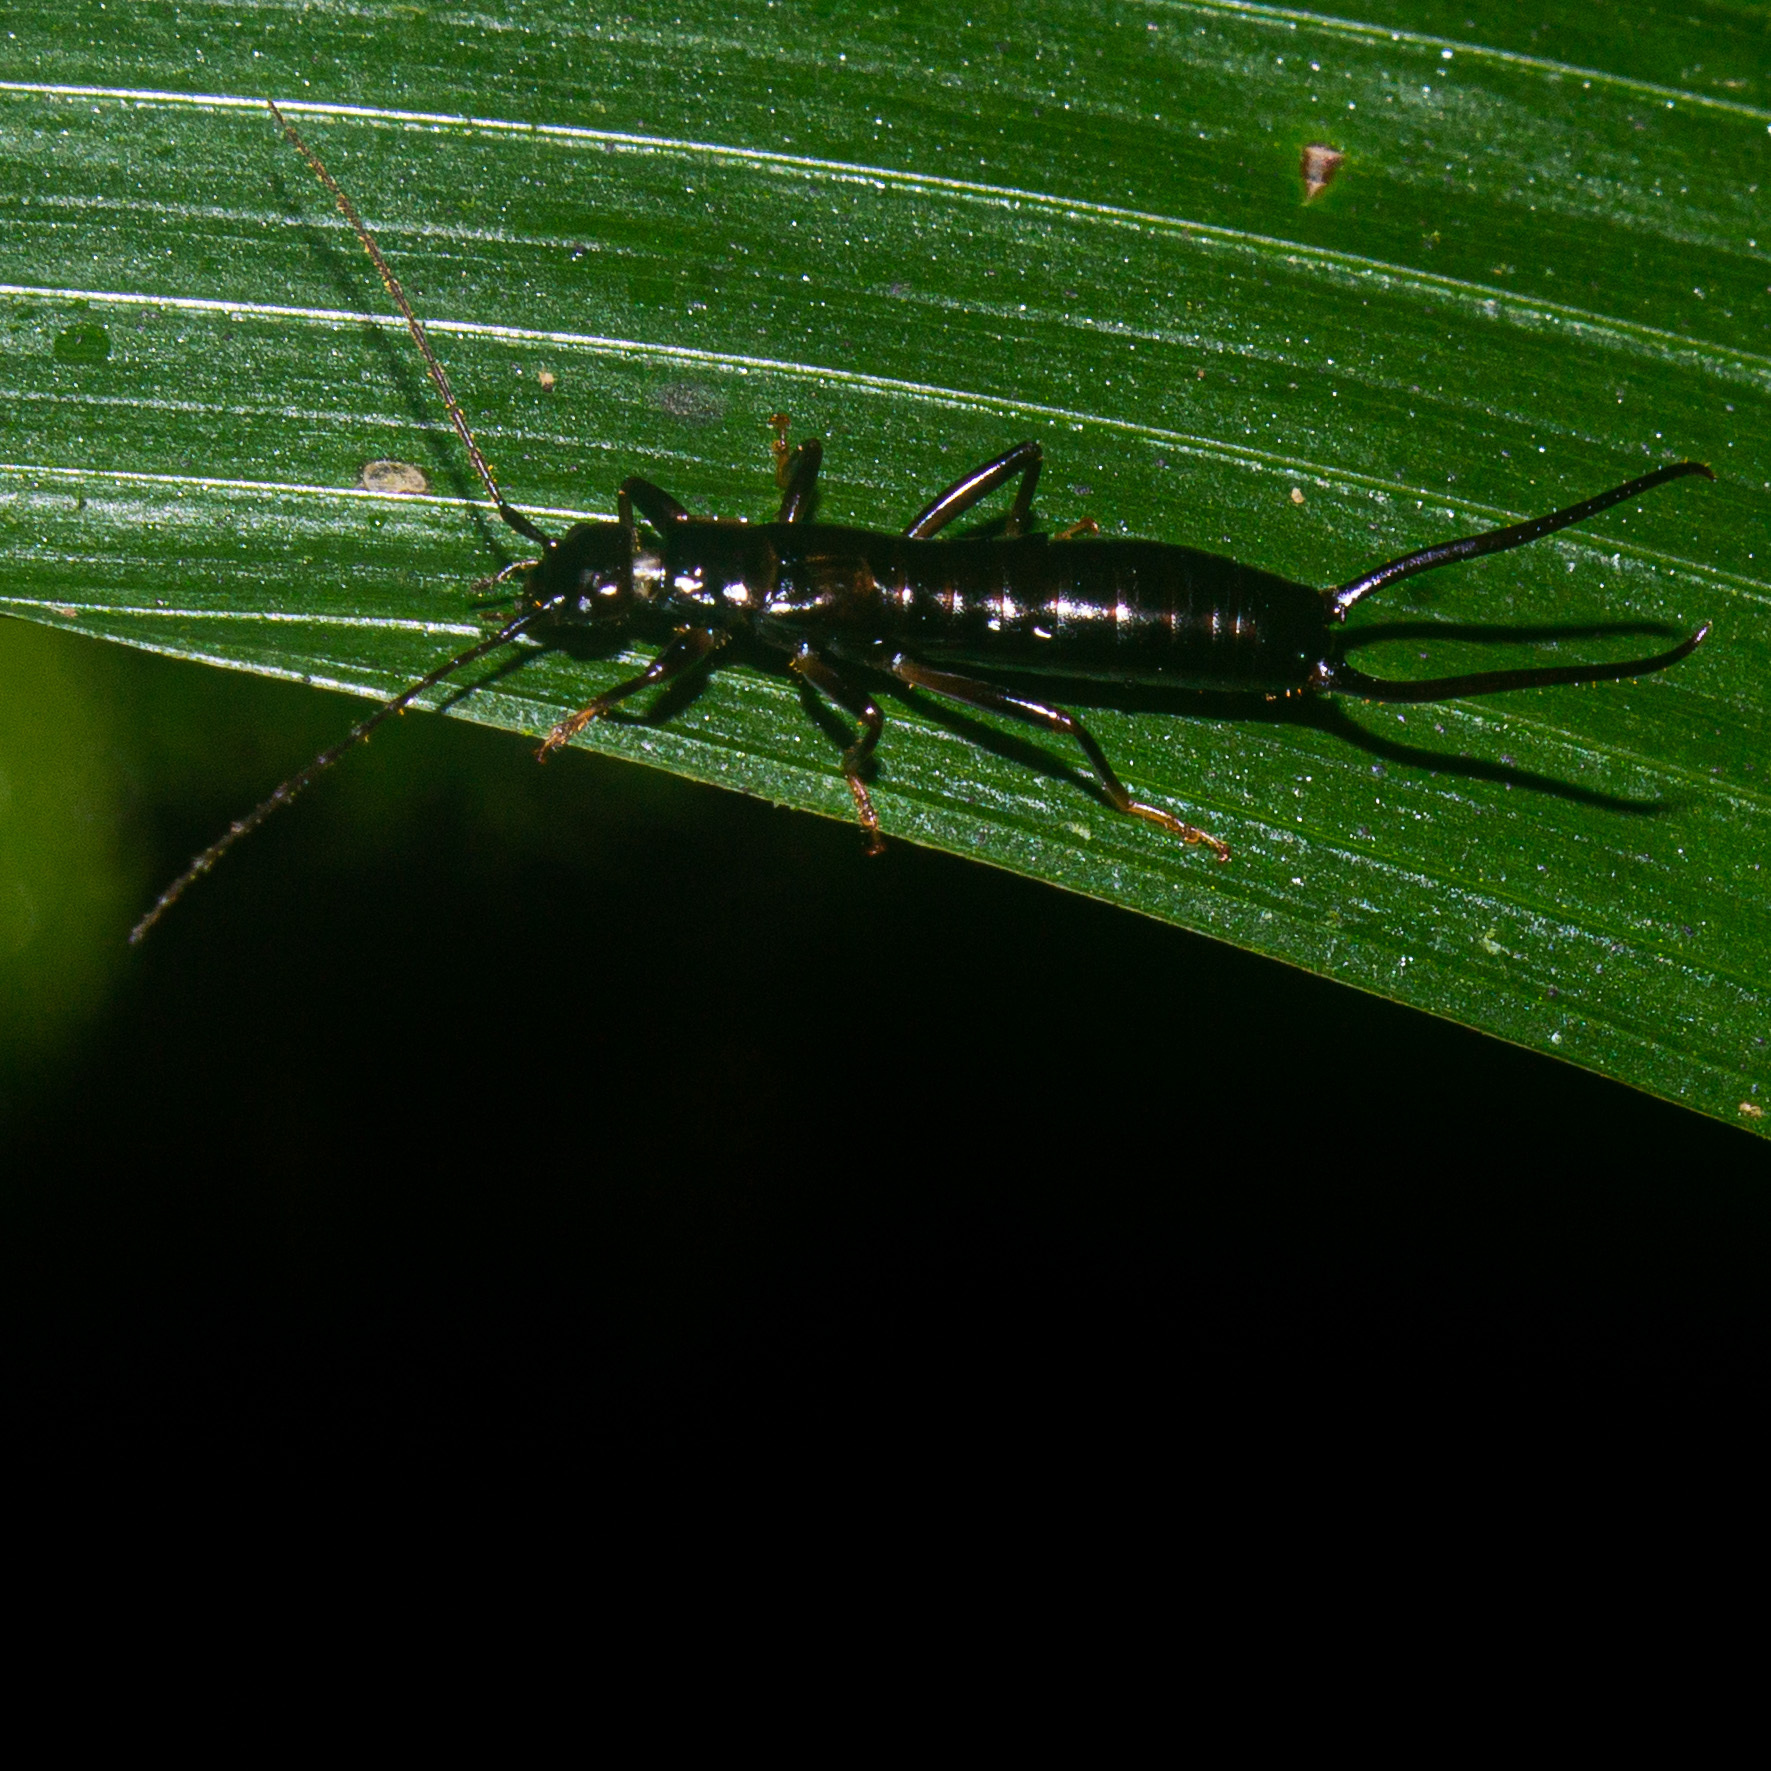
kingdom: Animalia
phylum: Arthropoda
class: Insecta
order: Dermaptera
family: Forficulidae
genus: Neolobophora
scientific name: Neolobophora bogotensis
